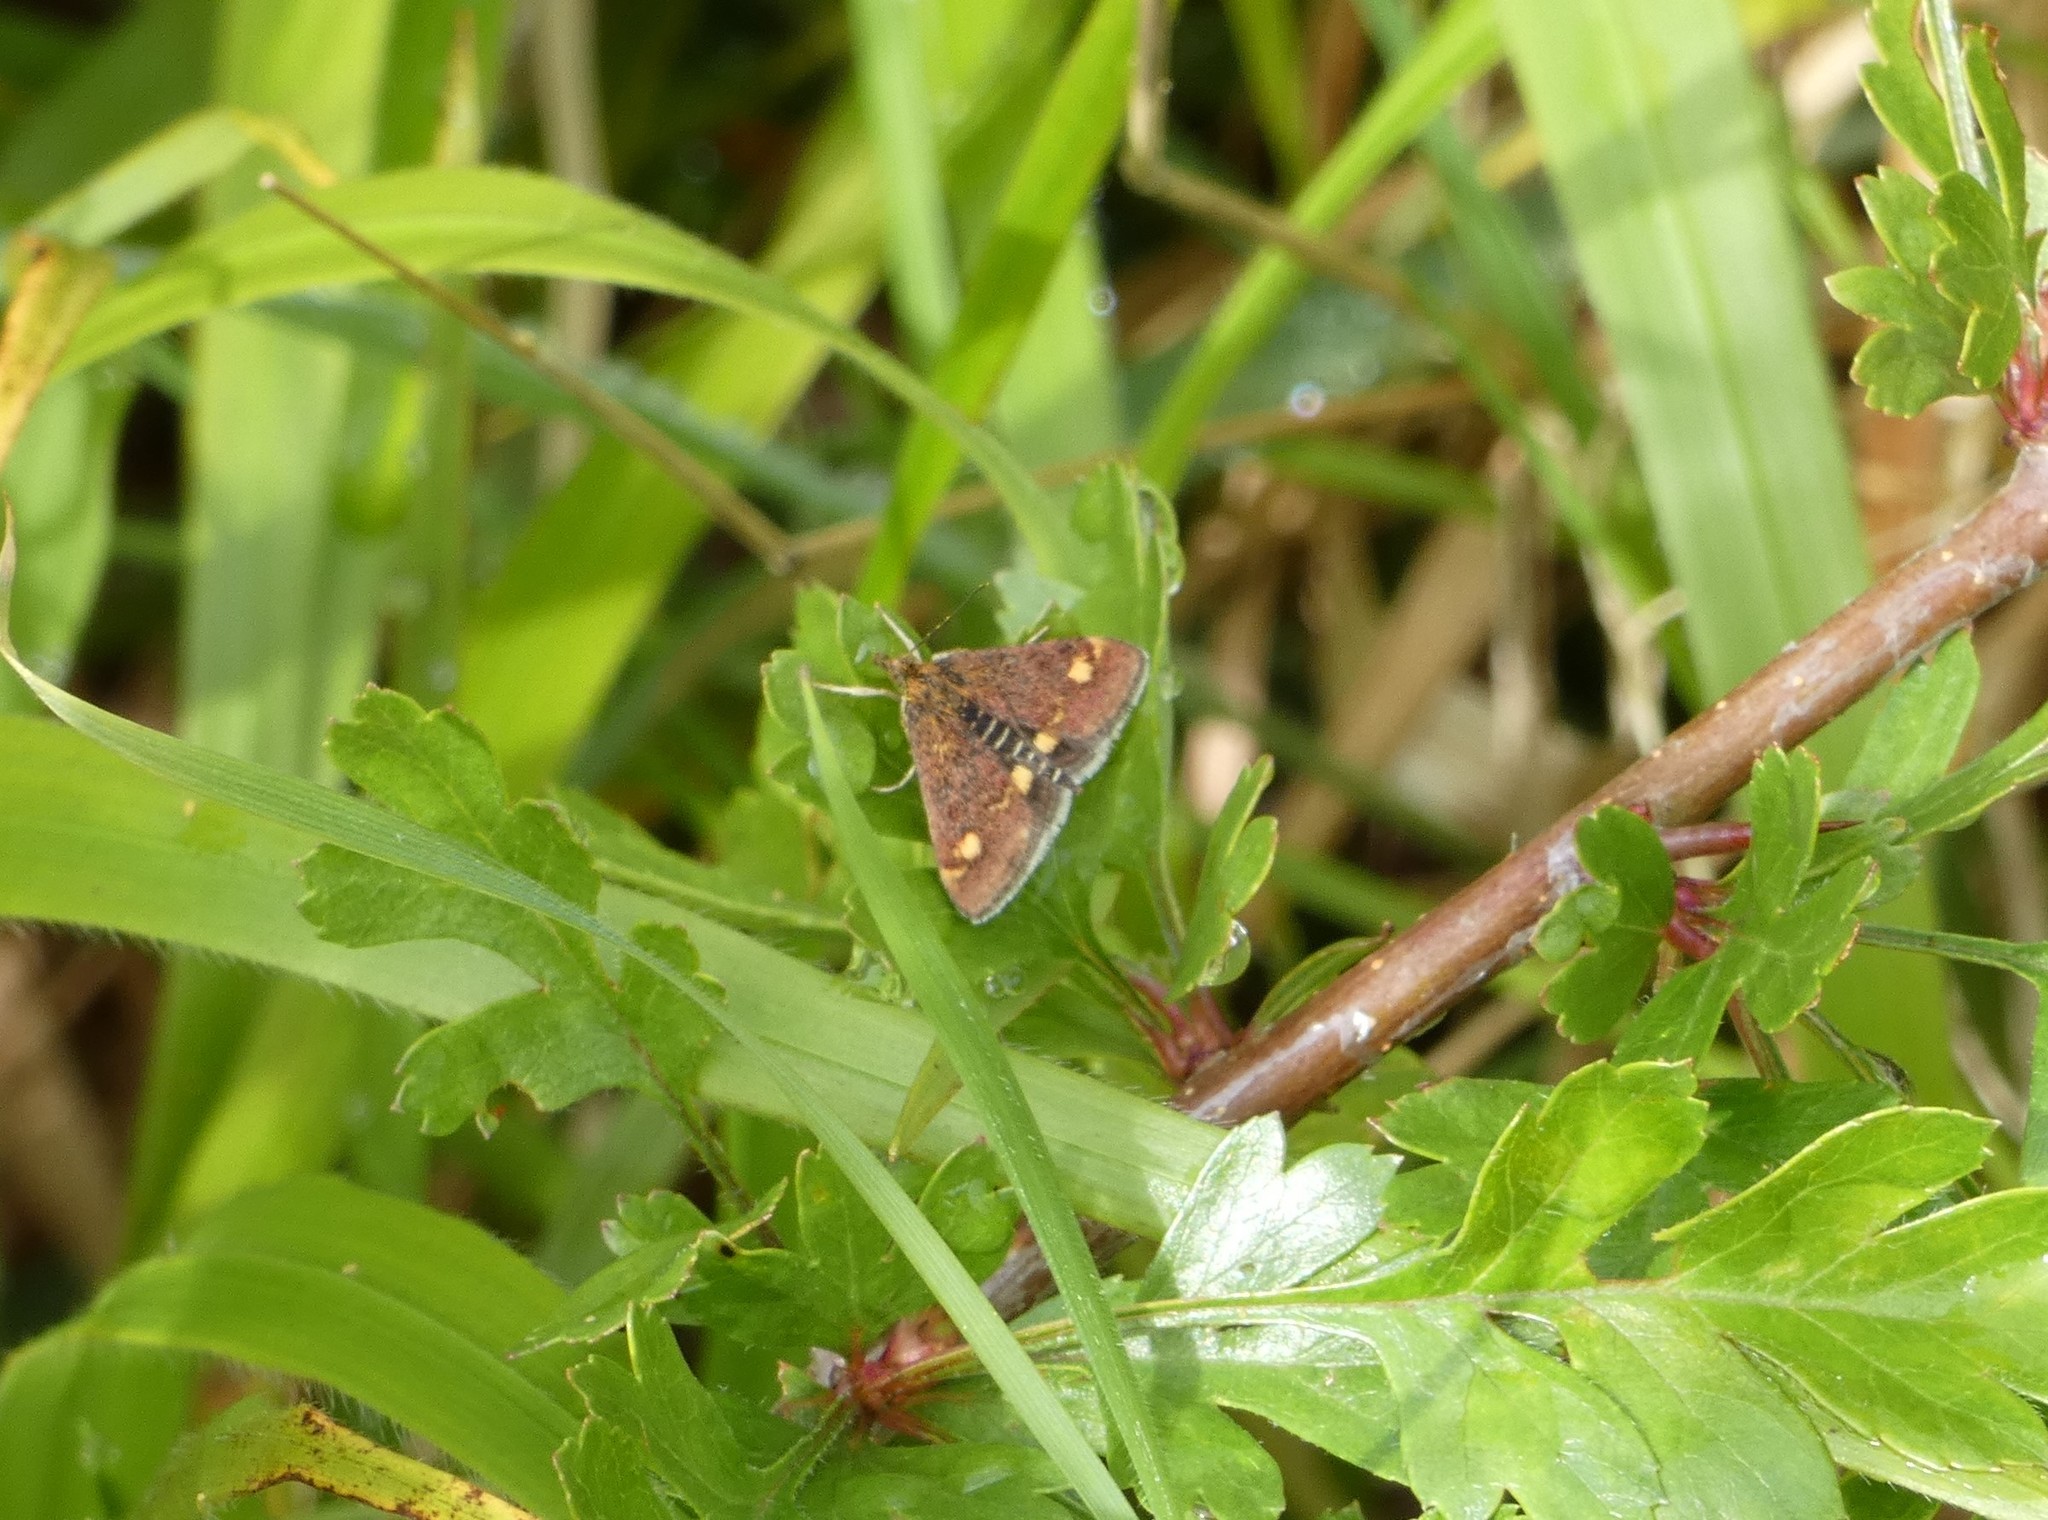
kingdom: Animalia
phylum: Arthropoda
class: Insecta
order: Lepidoptera
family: Crambidae
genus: Pyrausta
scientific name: Pyrausta aurata
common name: Small purple & gold
